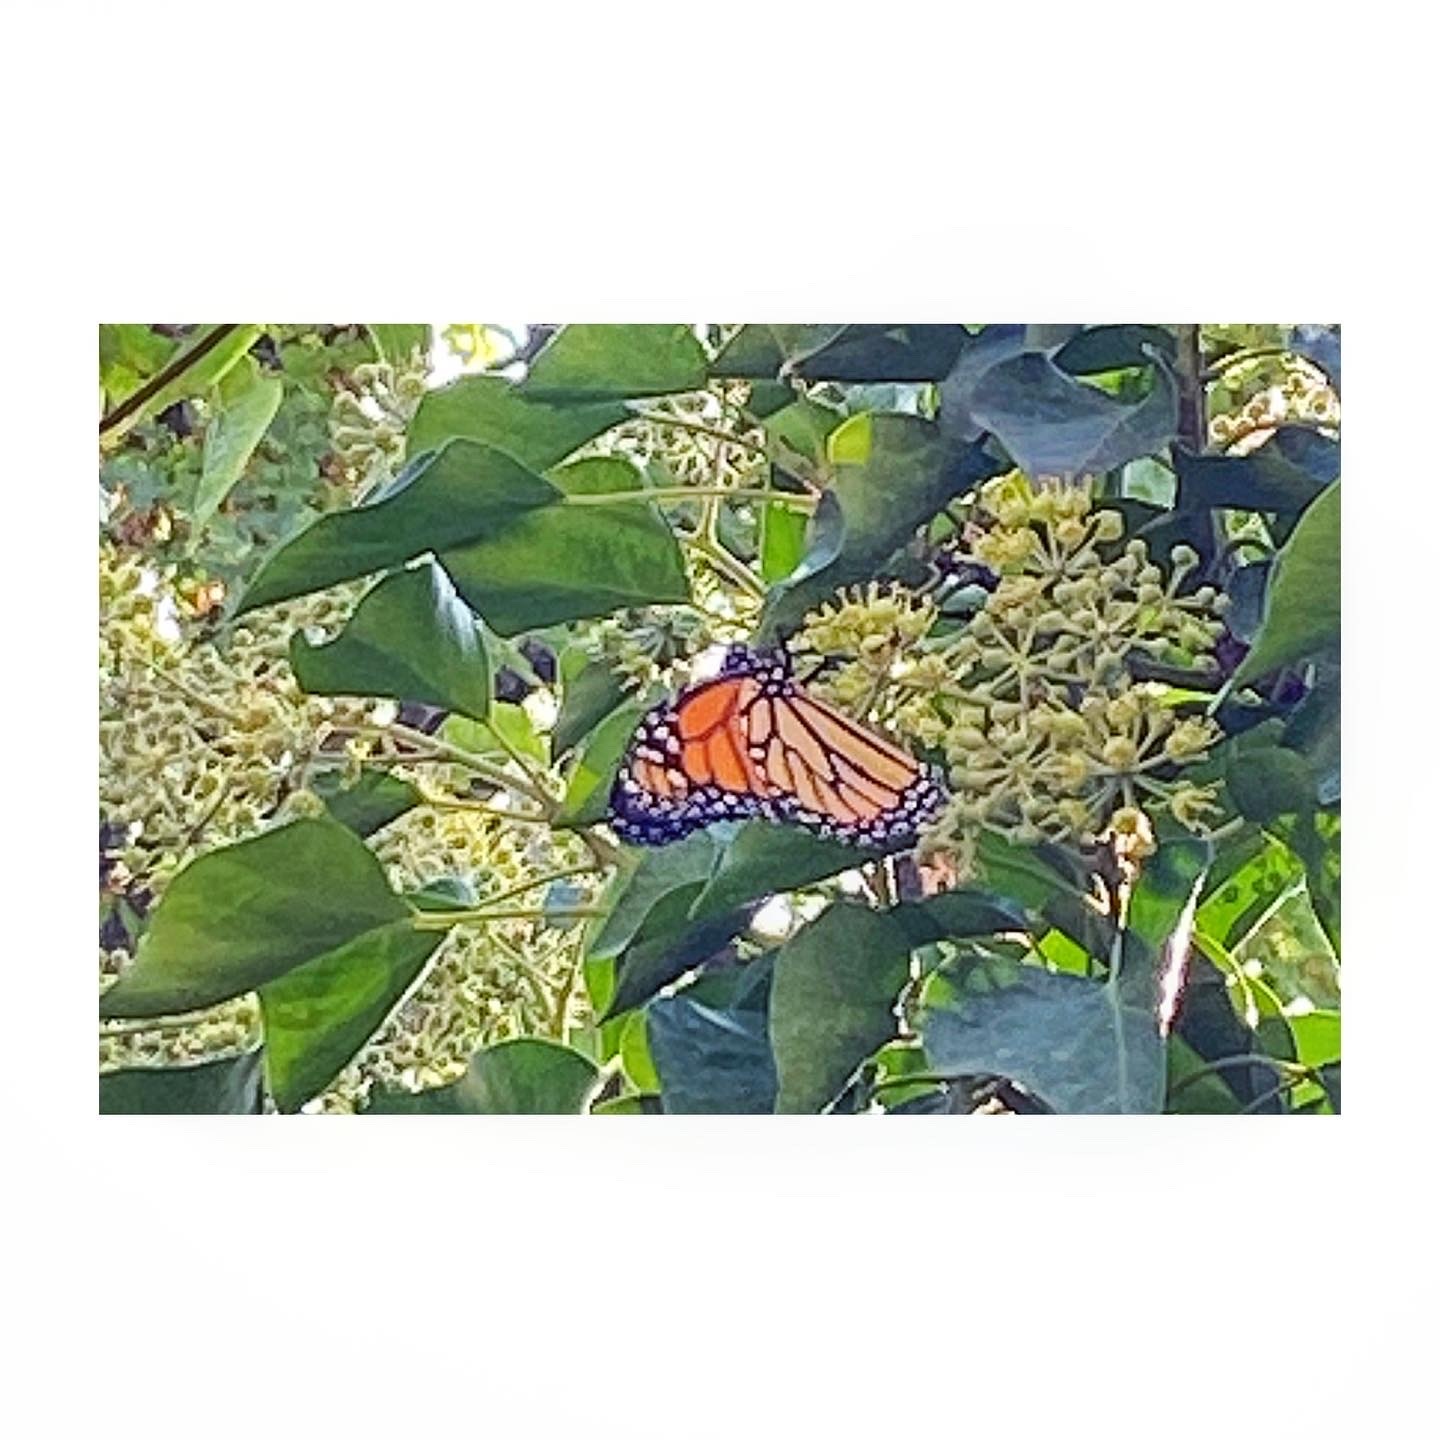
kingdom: Animalia
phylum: Arthropoda
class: Insecta
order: Lepidoptera
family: Nymphalidae
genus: Danaus
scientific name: Danaus plexippus
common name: Monarch
